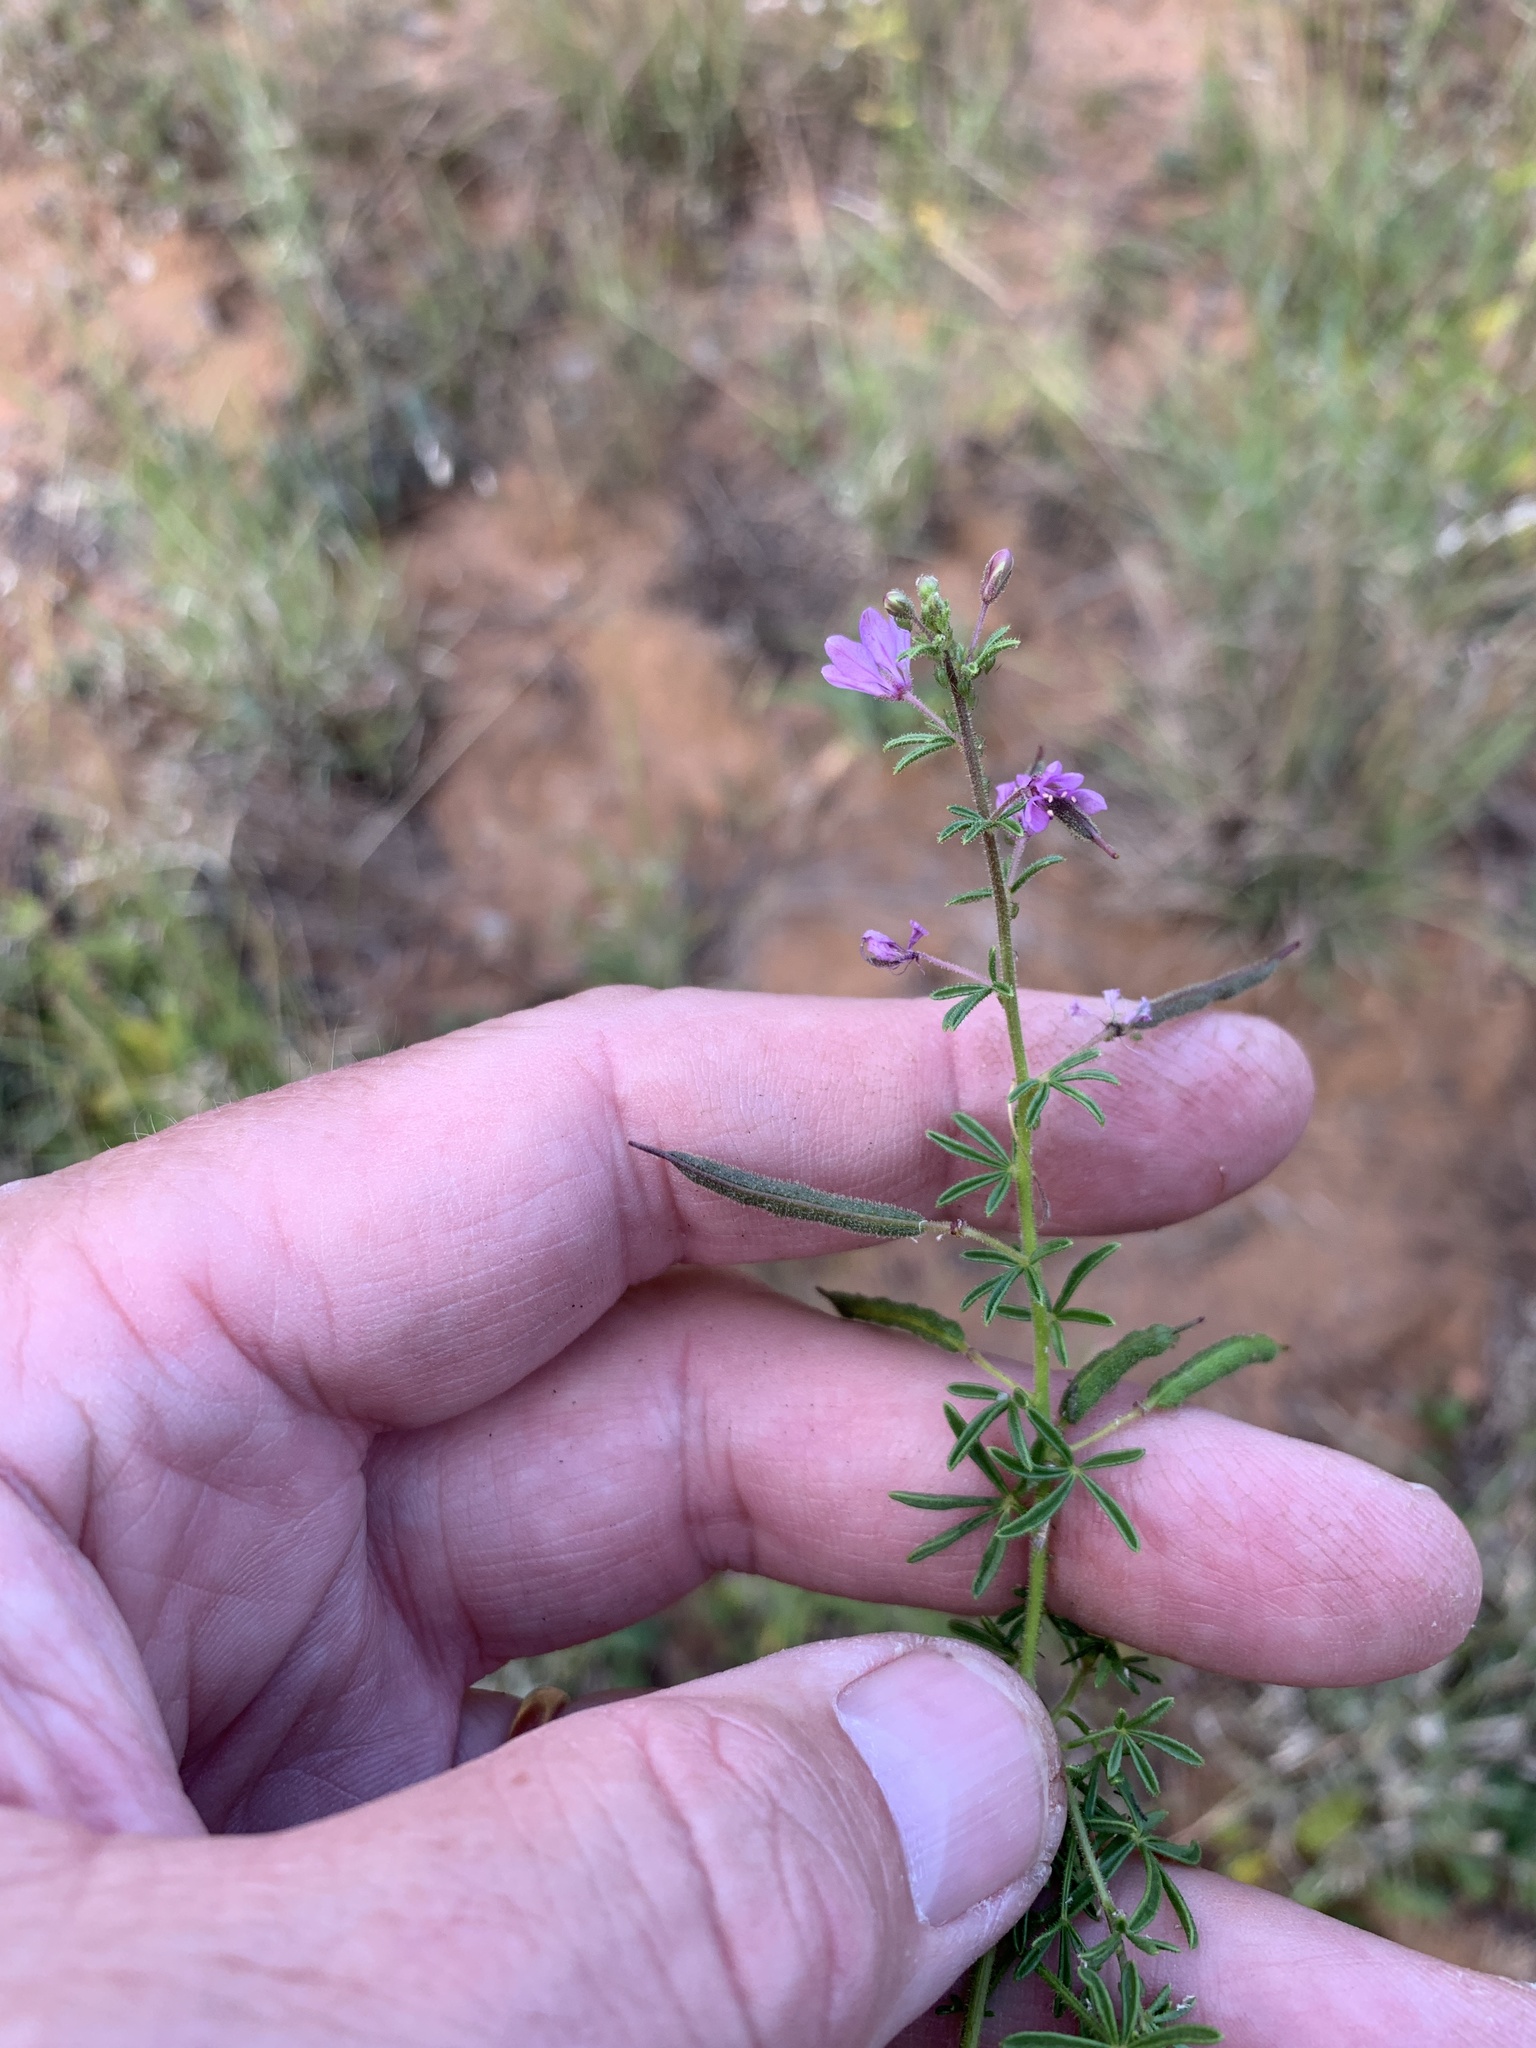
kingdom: Plantae
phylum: Tracheophyta
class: Magnoliopsida
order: Brassicales
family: Cleomaceae
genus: Sieruela
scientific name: Sieruela rubella
